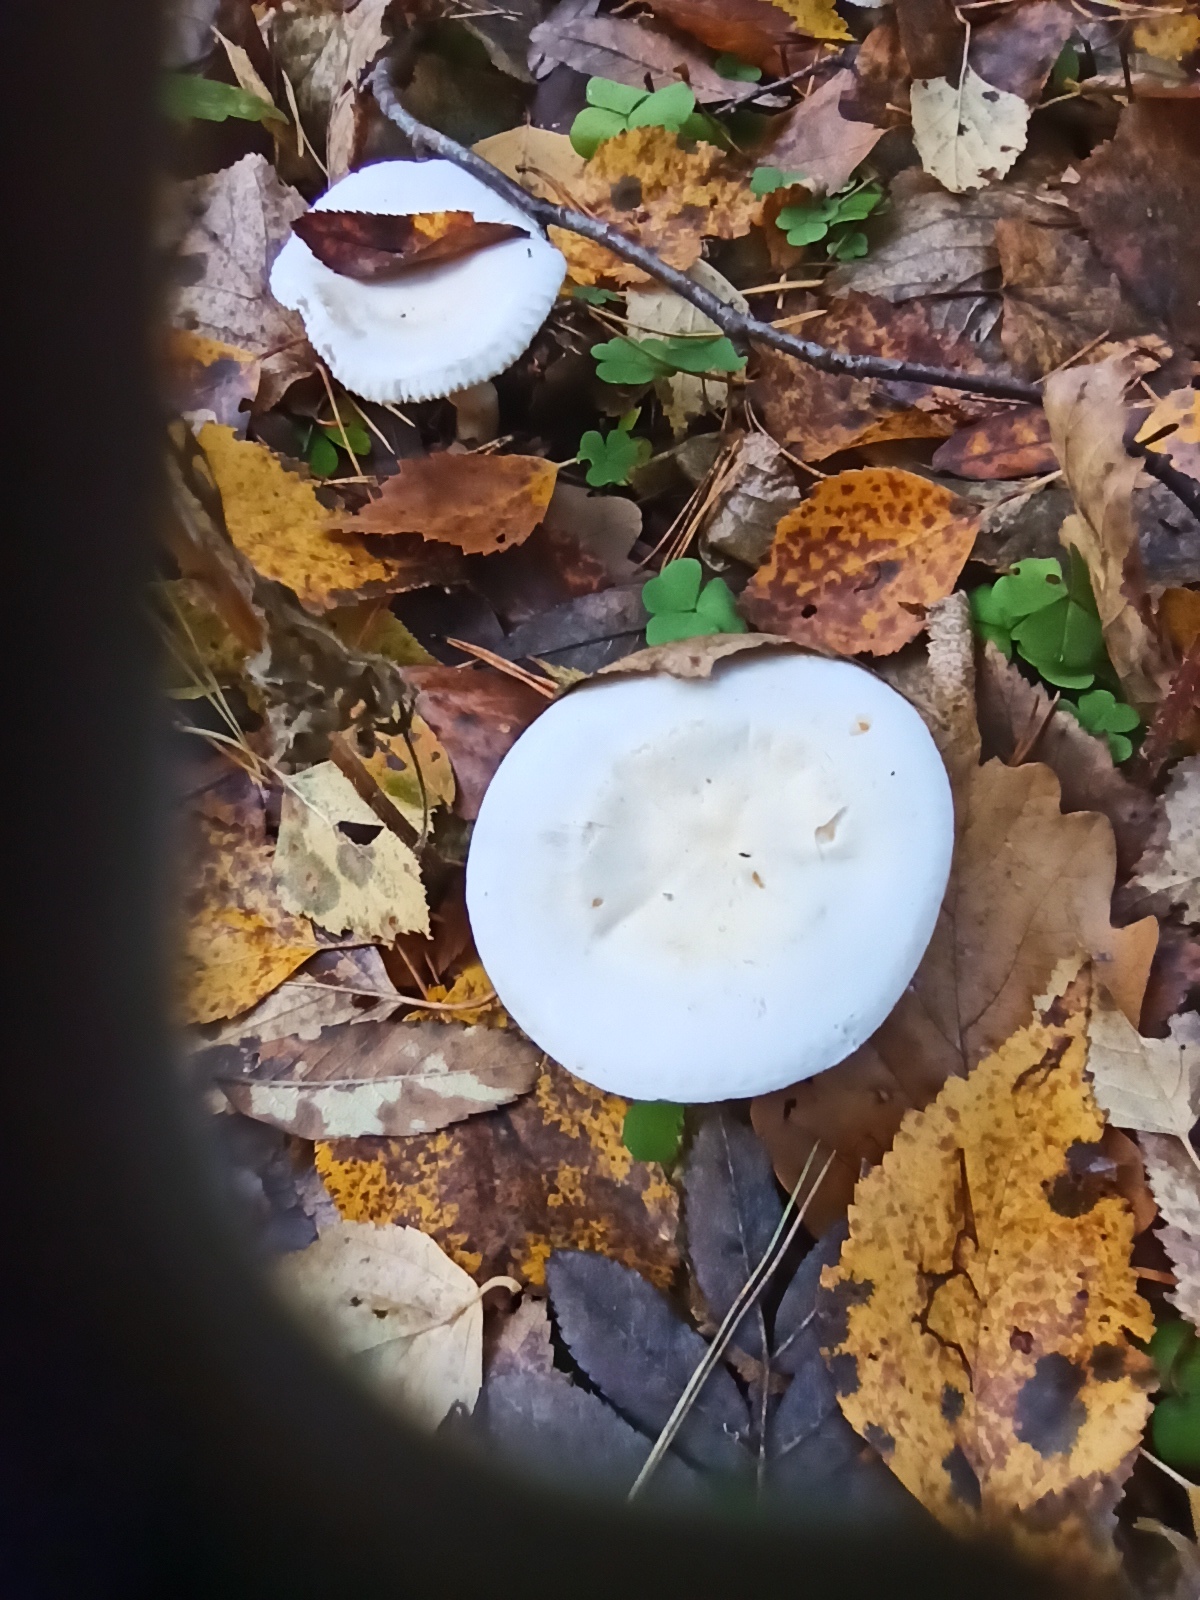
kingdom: Fungi
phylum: Basidiomycota
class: Agaricomycetes
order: Agaricales
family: Tricholomataceae
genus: Tricholoma
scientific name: Tricholoma stiparophyllum
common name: Chemical knight
